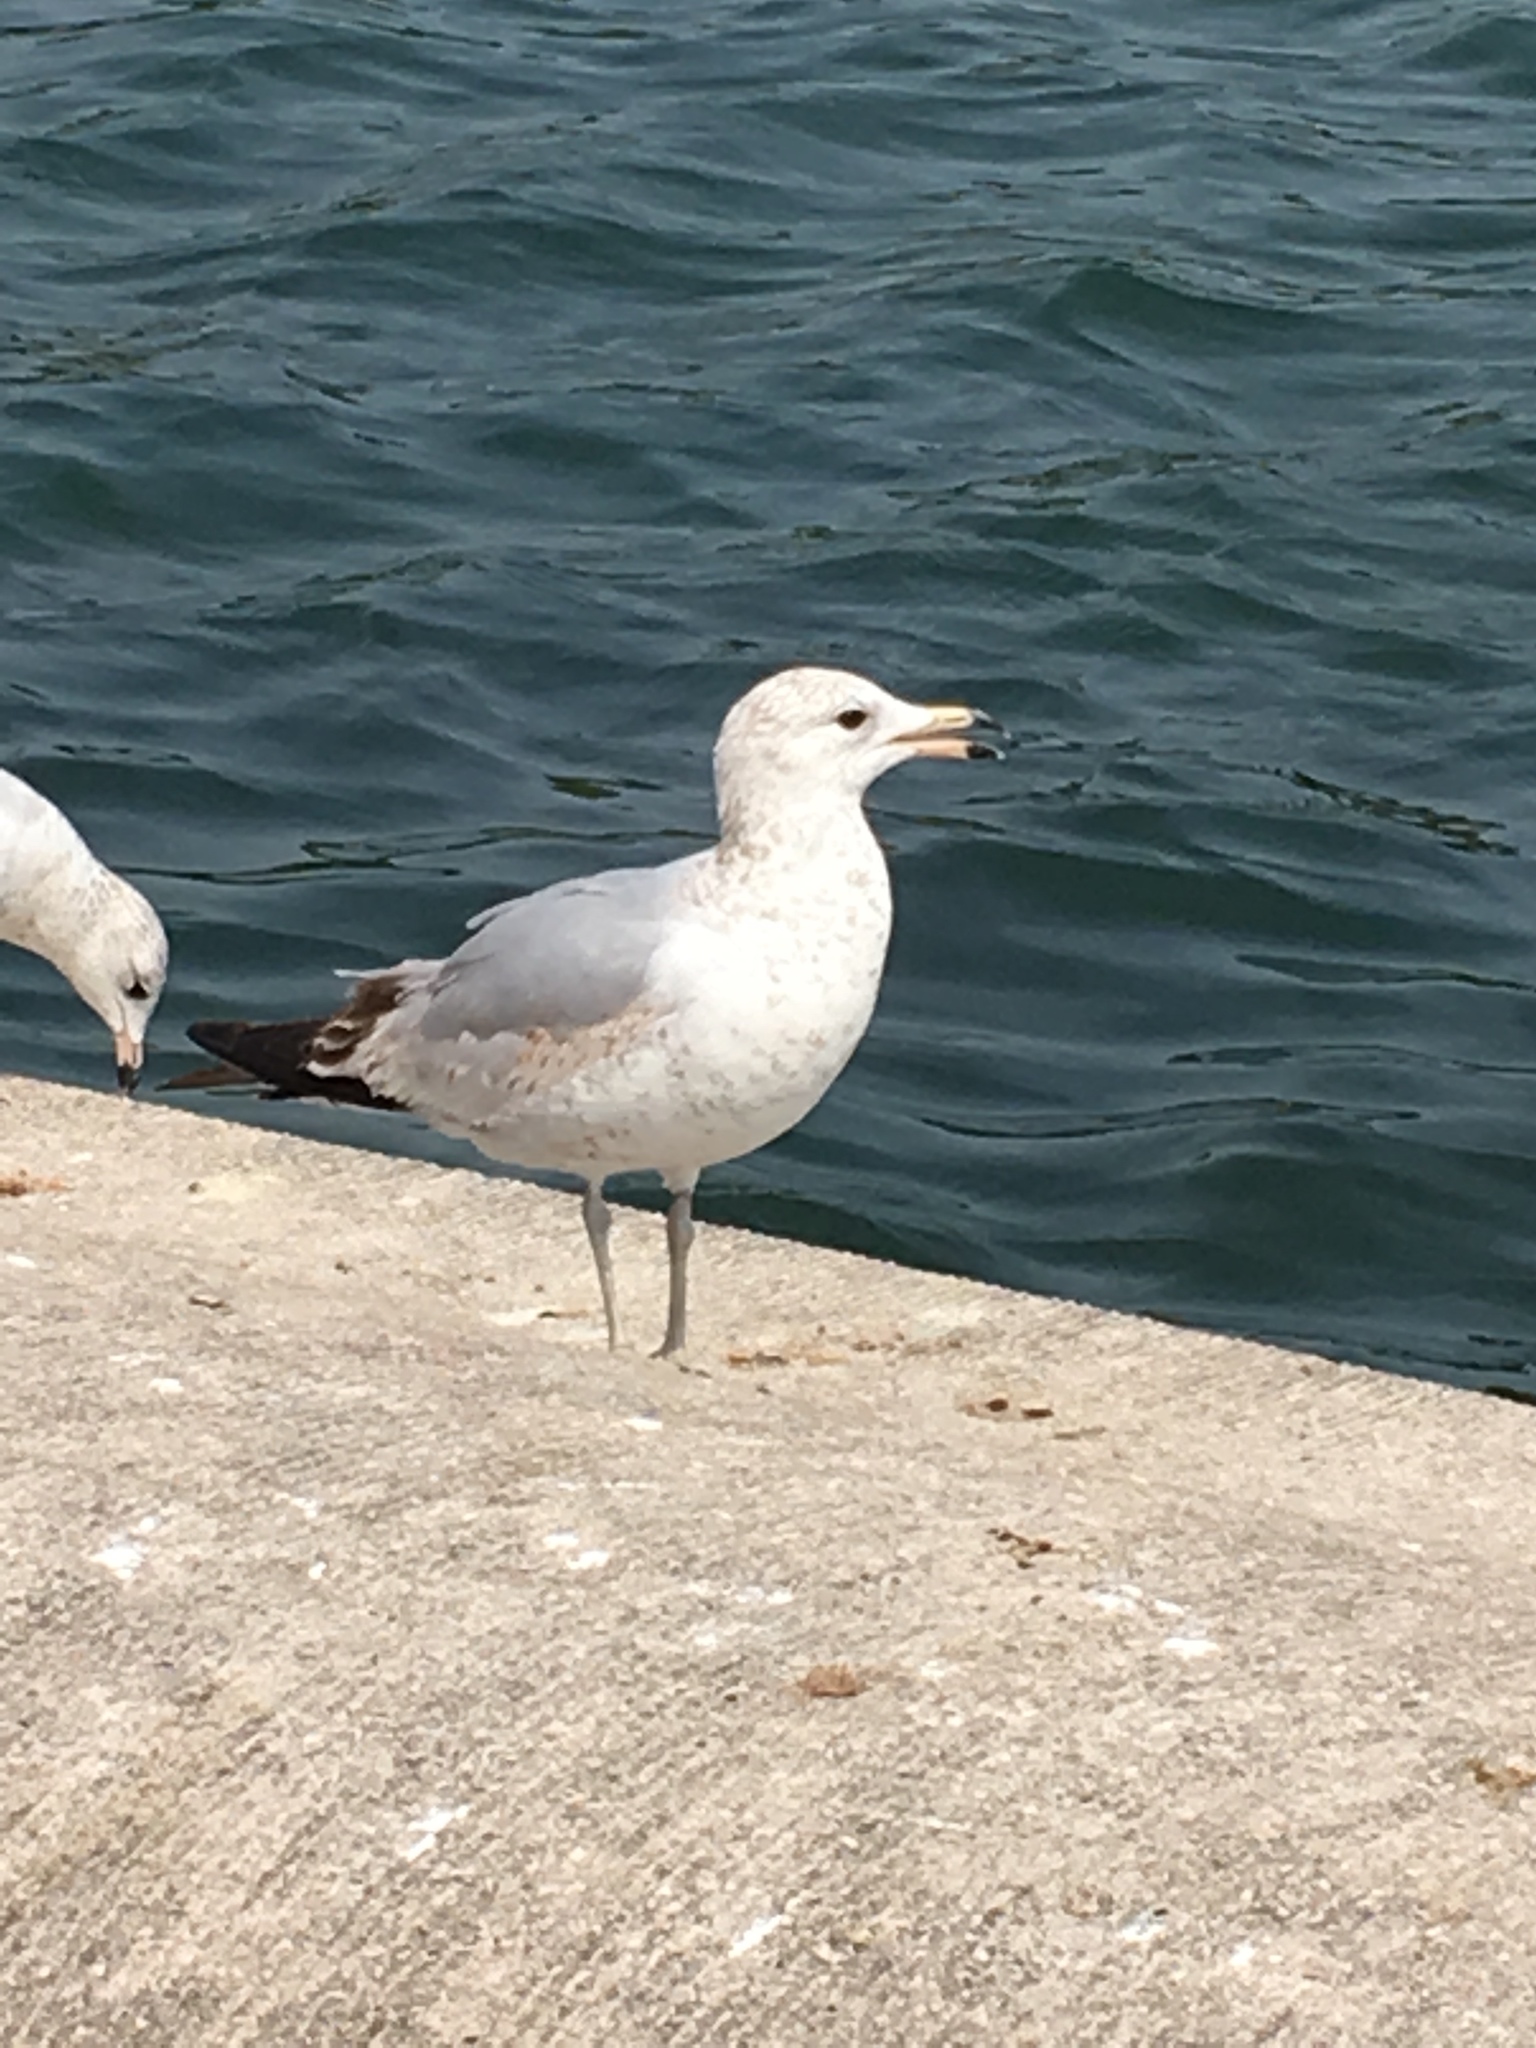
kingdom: Animalia
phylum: Chordata
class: Aves
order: Charadriiformes
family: Laridae
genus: Larus
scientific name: Larus delawarensis
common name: Ring-billed gull
